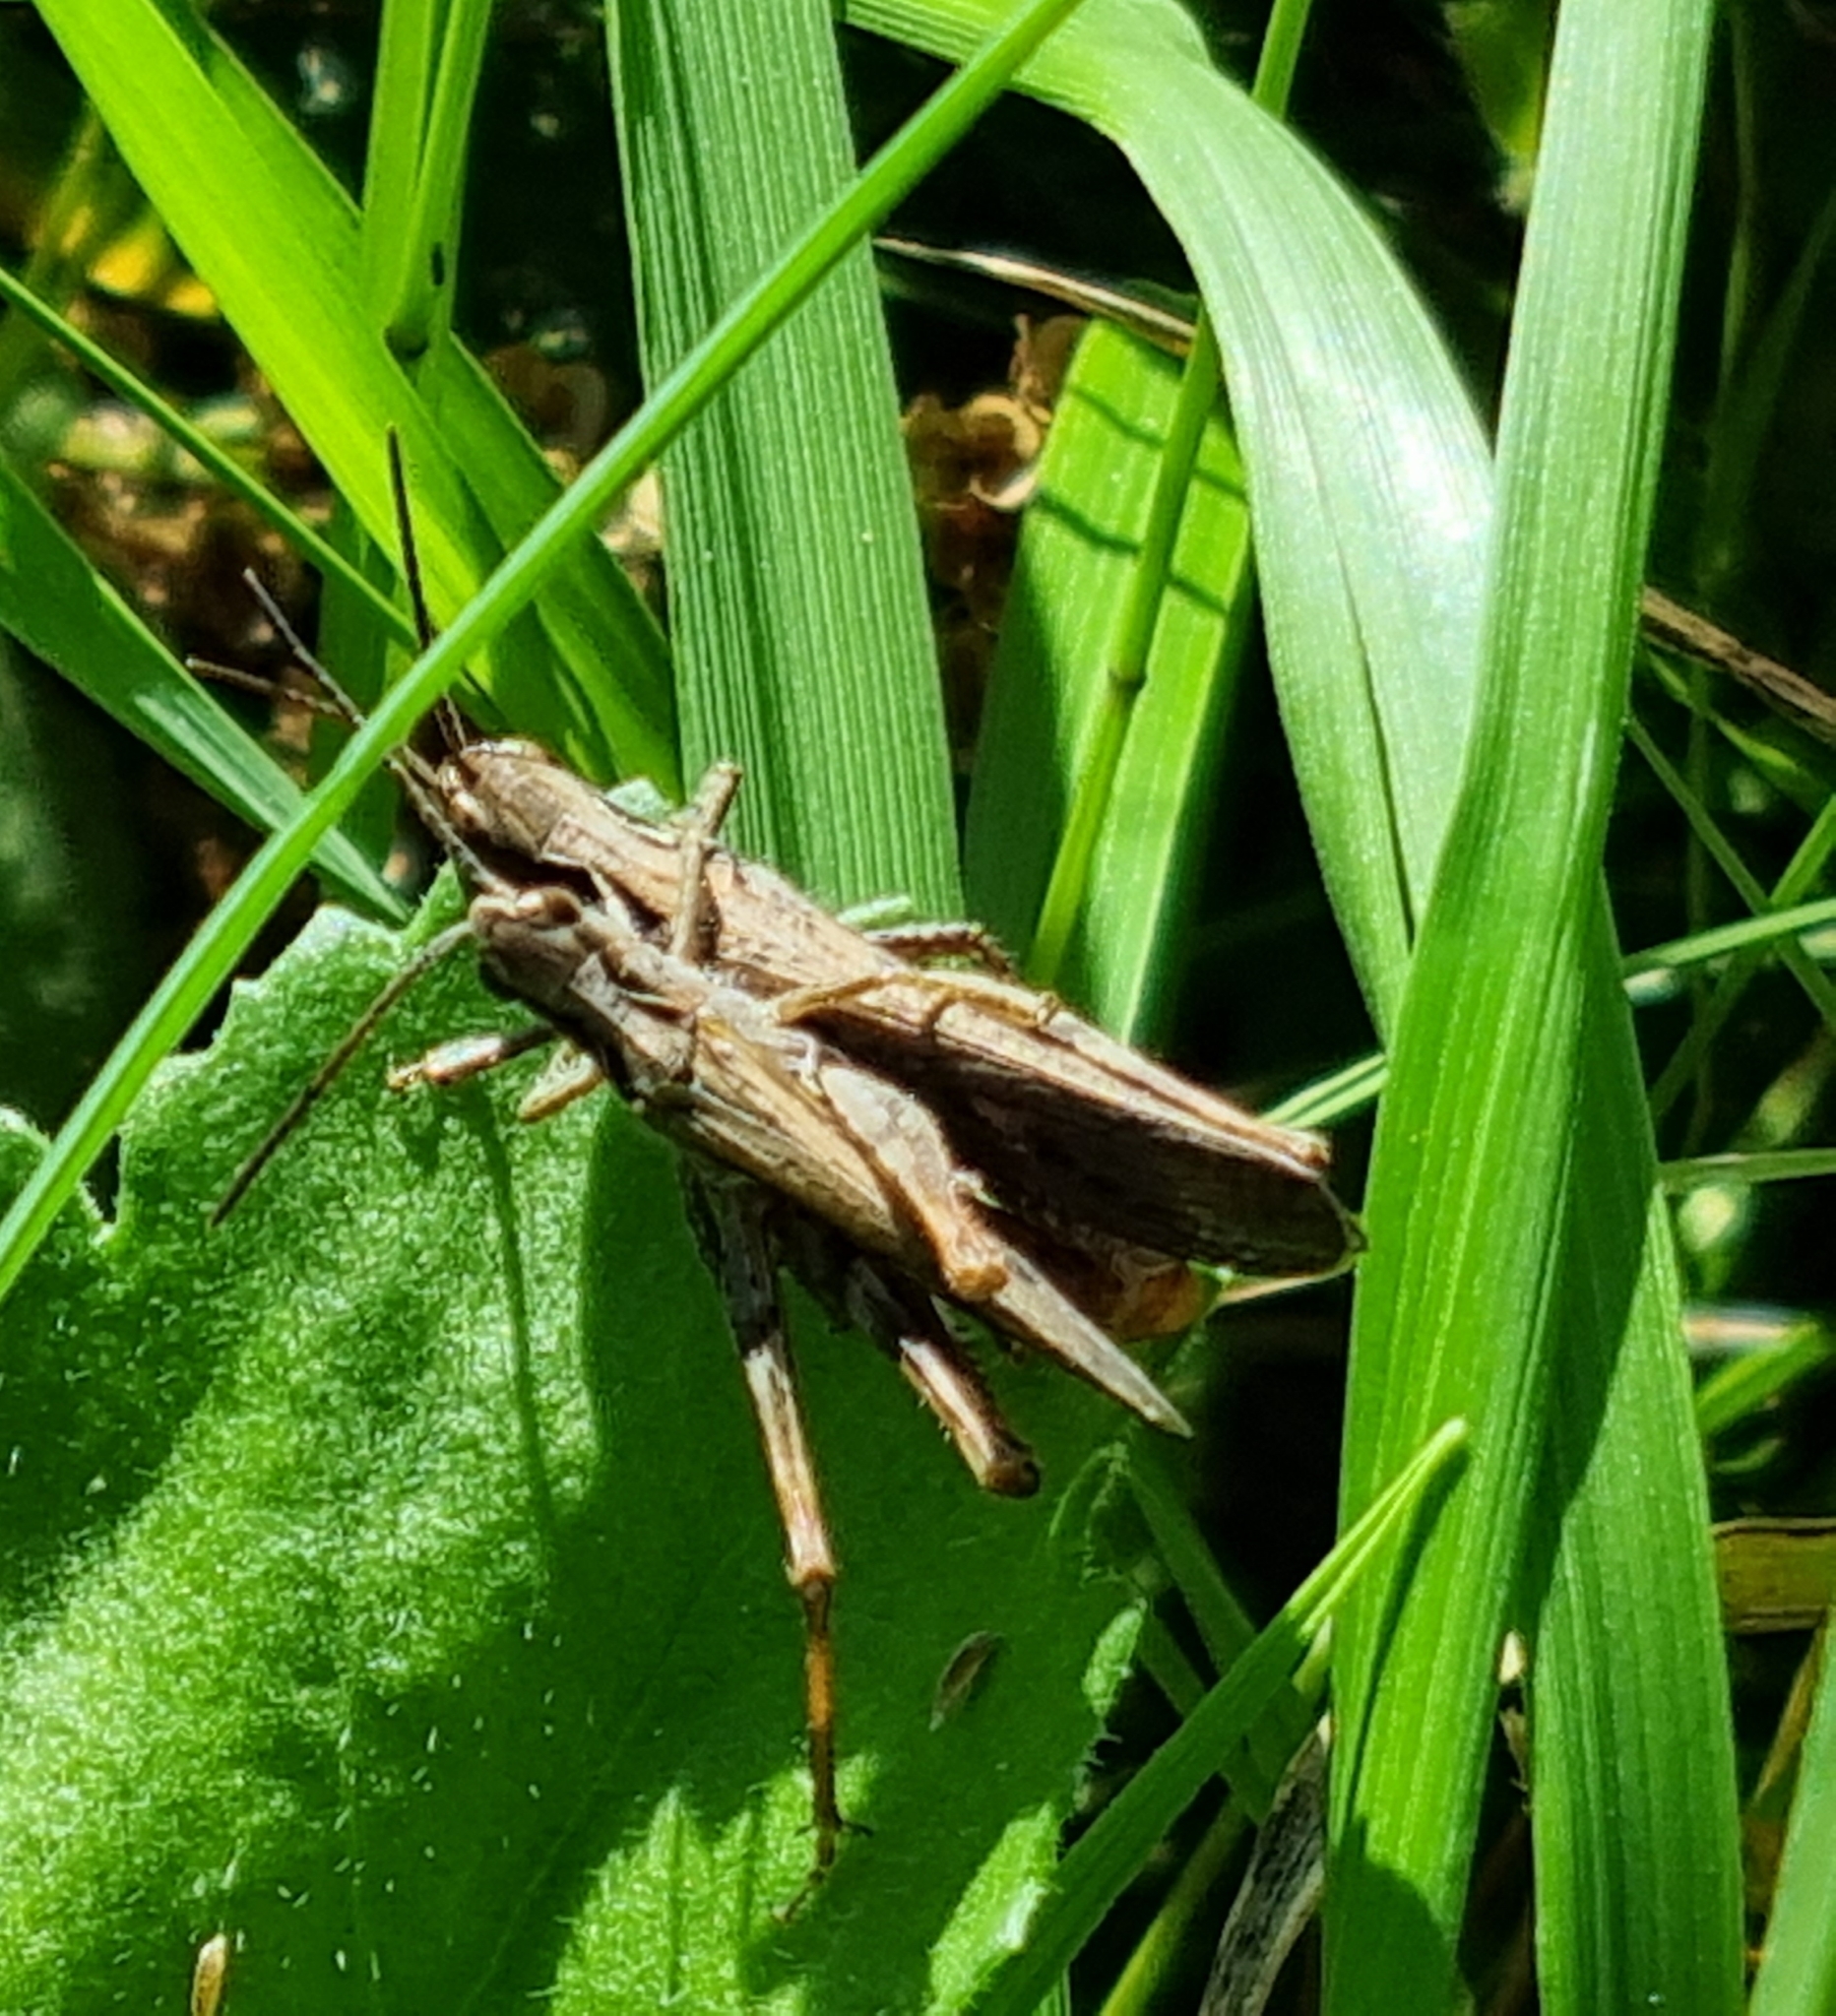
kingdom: Animalia
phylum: Arthropoda
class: Insecta
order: Orthoptera
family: Acrididae
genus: Chorthippus
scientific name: Chorthippus brunneus
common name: Field grasshopper
